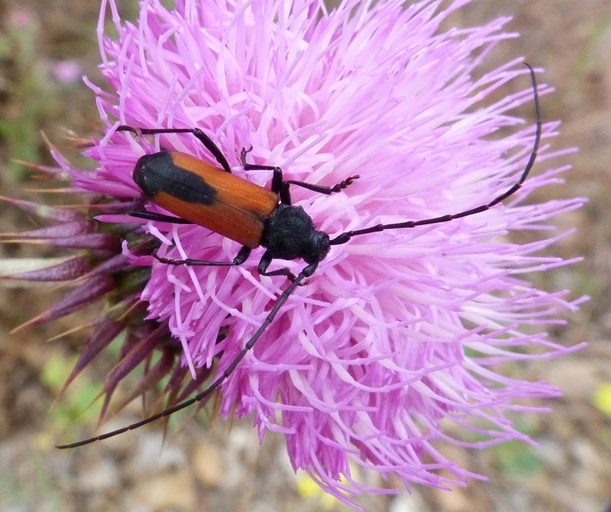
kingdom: Animalia
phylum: Arthropoda
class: Insecta
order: Coleoptera
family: Cerambycidae
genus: Purpuricenus
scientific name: Purpuricenus budensis
